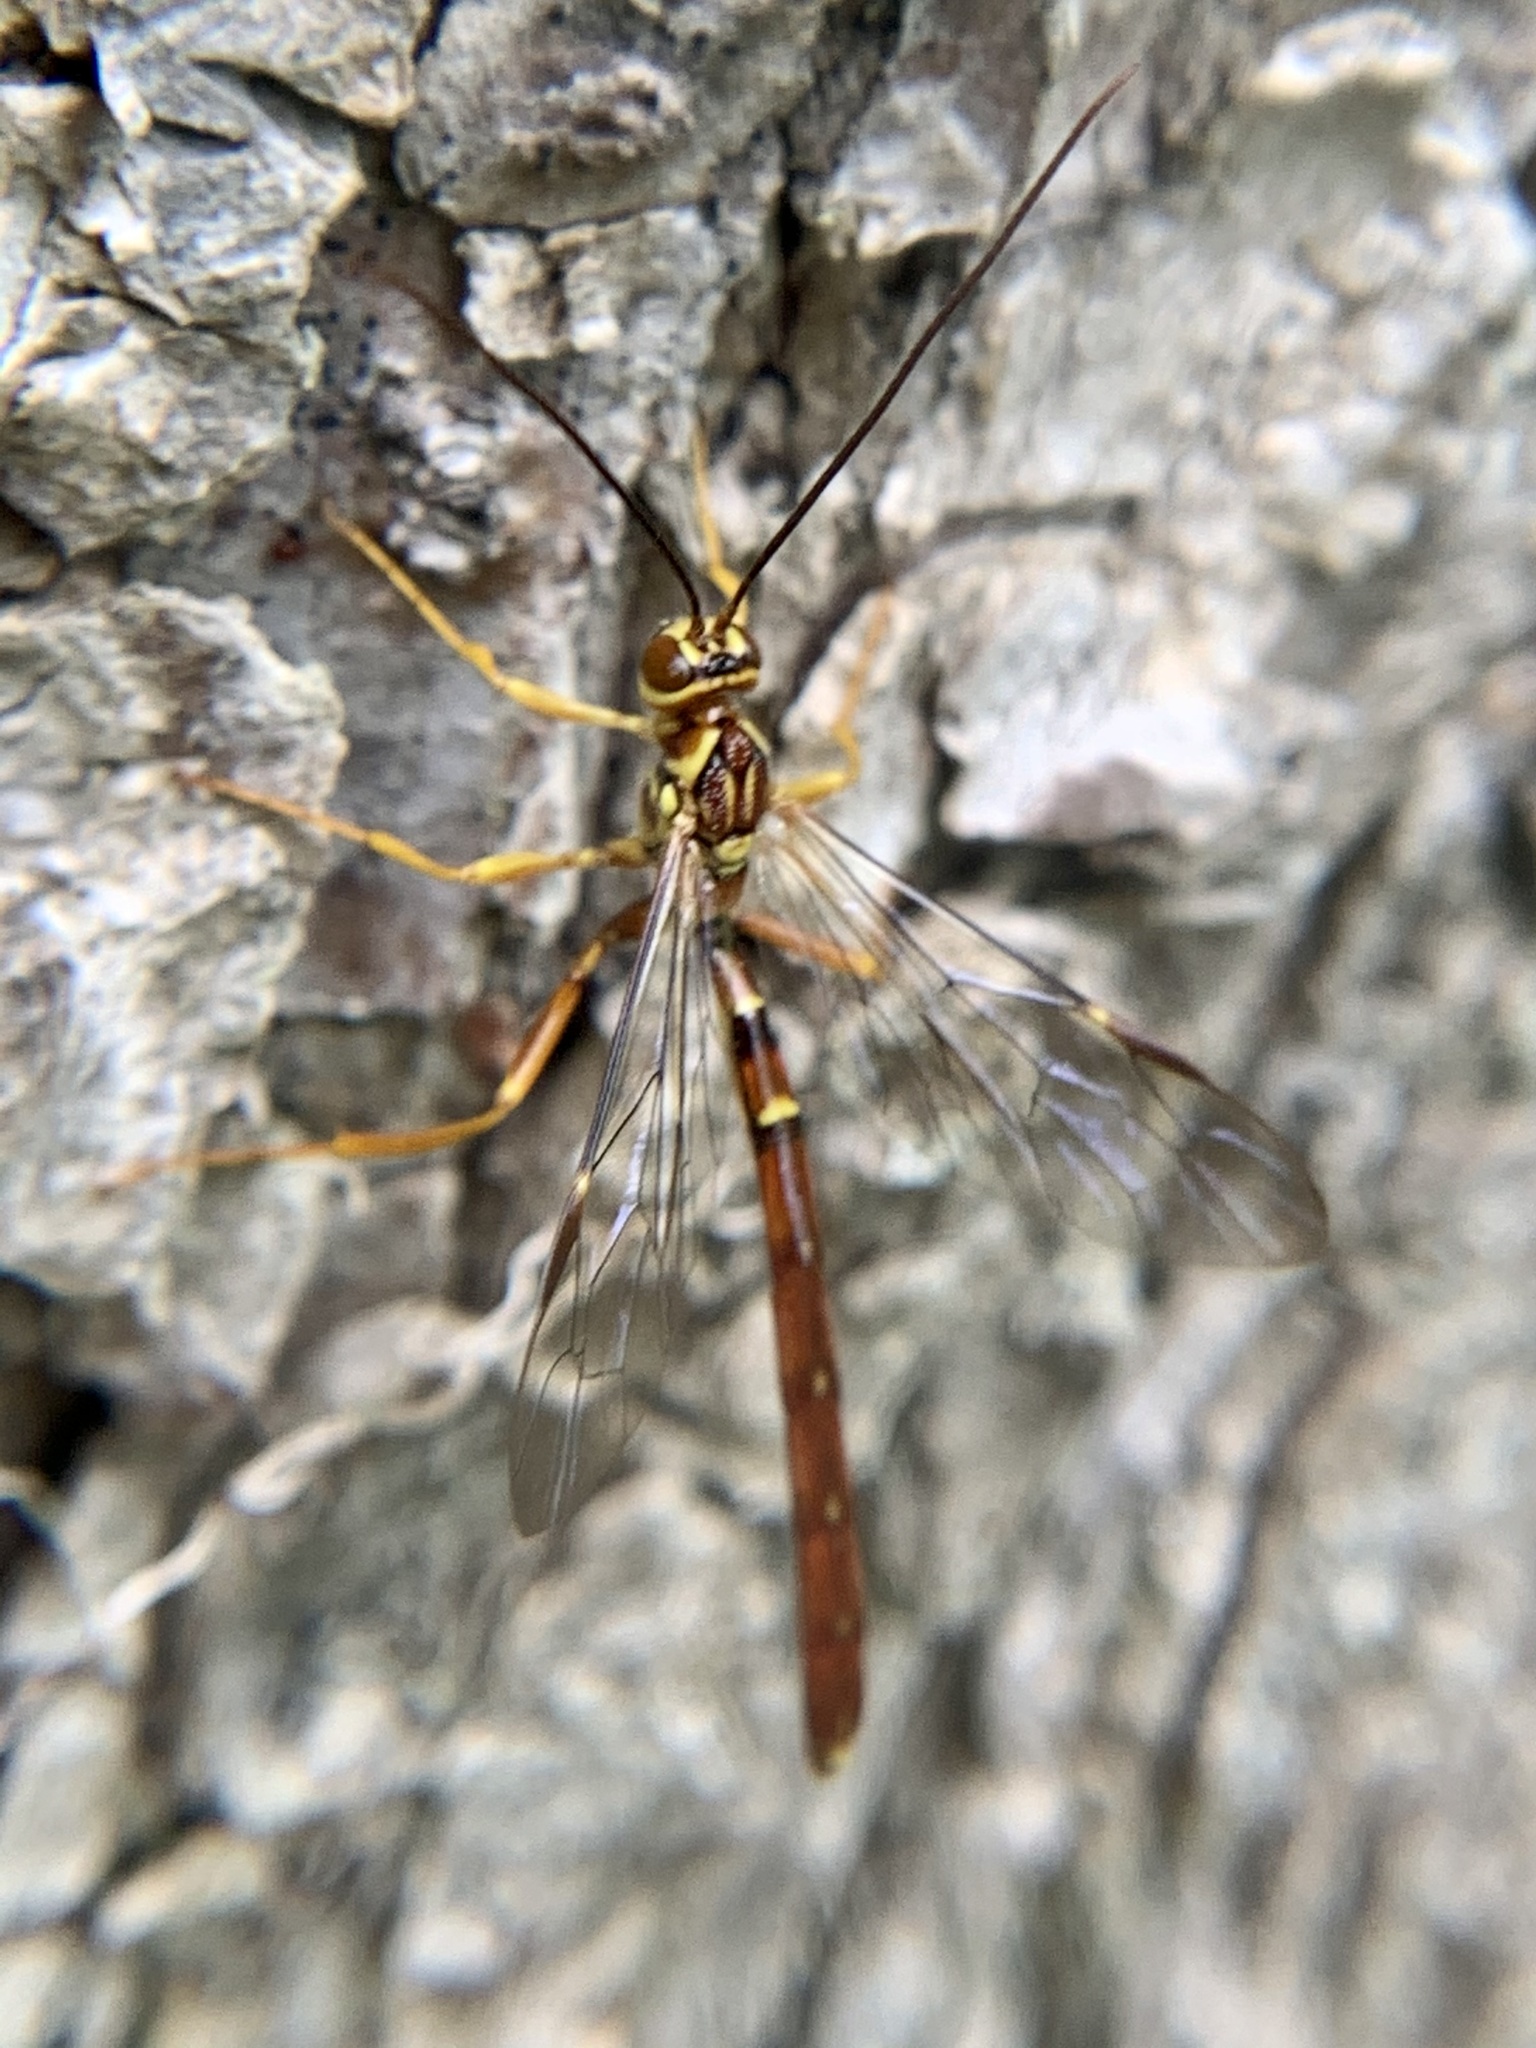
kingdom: Animalia
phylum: Arthropoda
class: Insecta
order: Hymenoptera
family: Ichneumonidae
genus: Megarhyssa
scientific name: Megarhyssa greenei
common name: Greene's giant ichneumonid wasp
